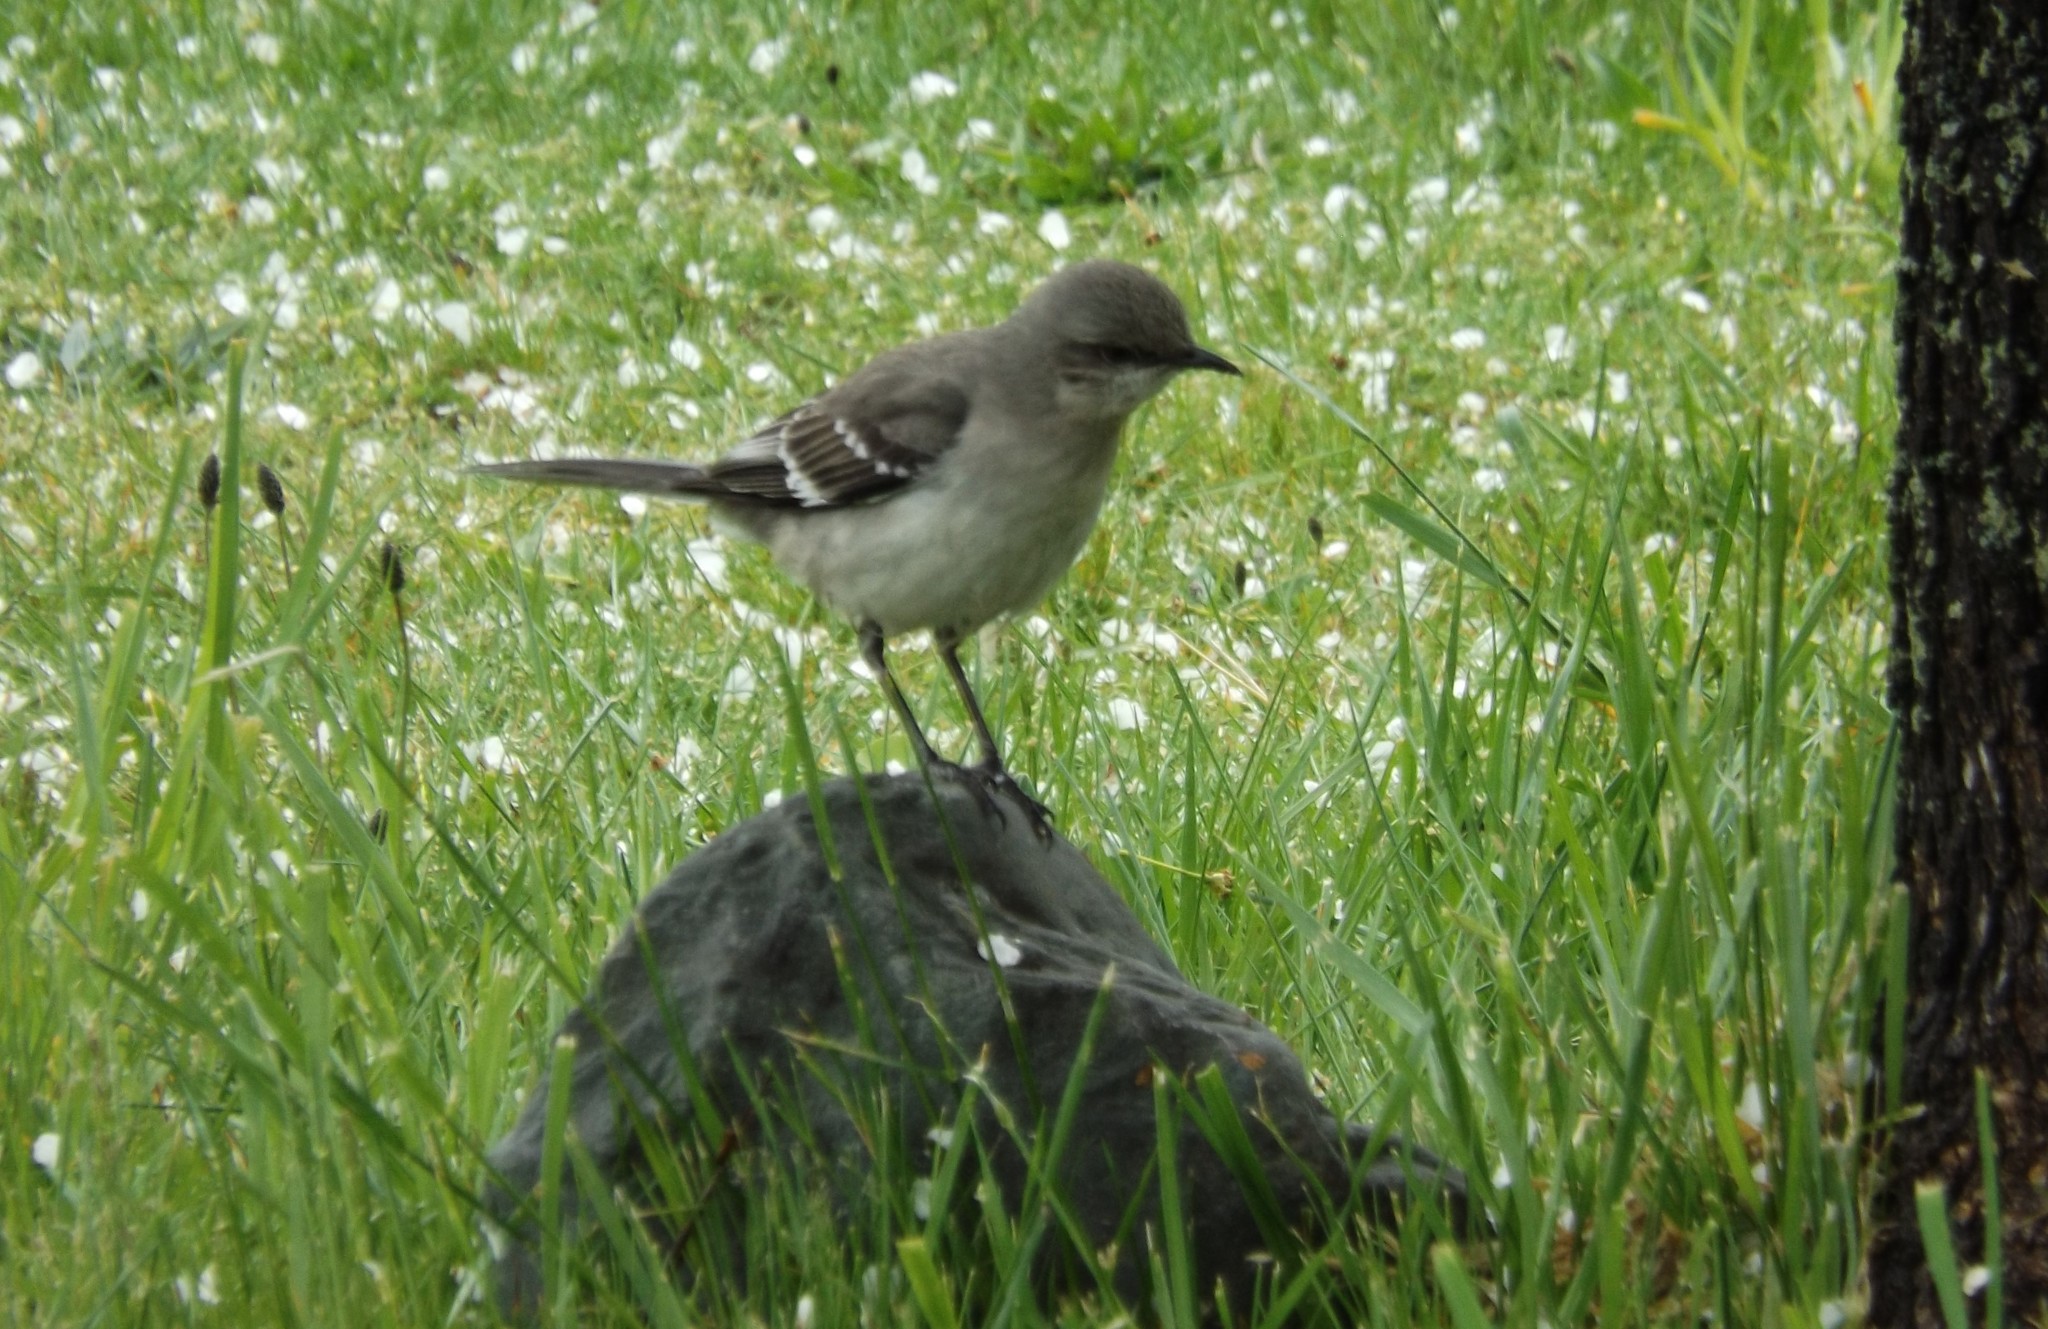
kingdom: Animalia
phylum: Chordata
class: Aves
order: Passeriformes
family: Mimidae
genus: Mimus
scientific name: Mimus polyglottos
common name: Northern mockingbird
